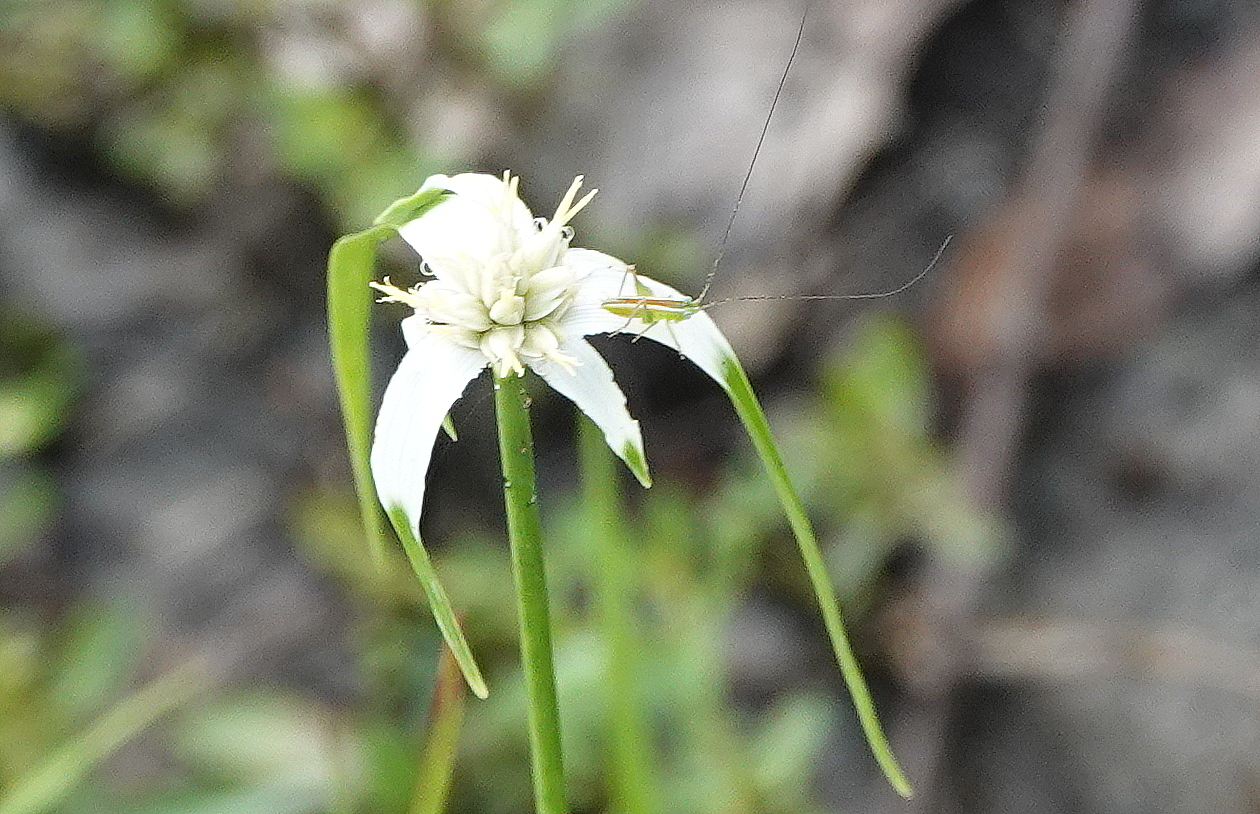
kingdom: Plantae
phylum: Tracheophyta
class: Liliopsida
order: Poales
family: Cyperaceae
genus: Rhynchospora
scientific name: Rhynchospora colorata
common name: Star sedge
